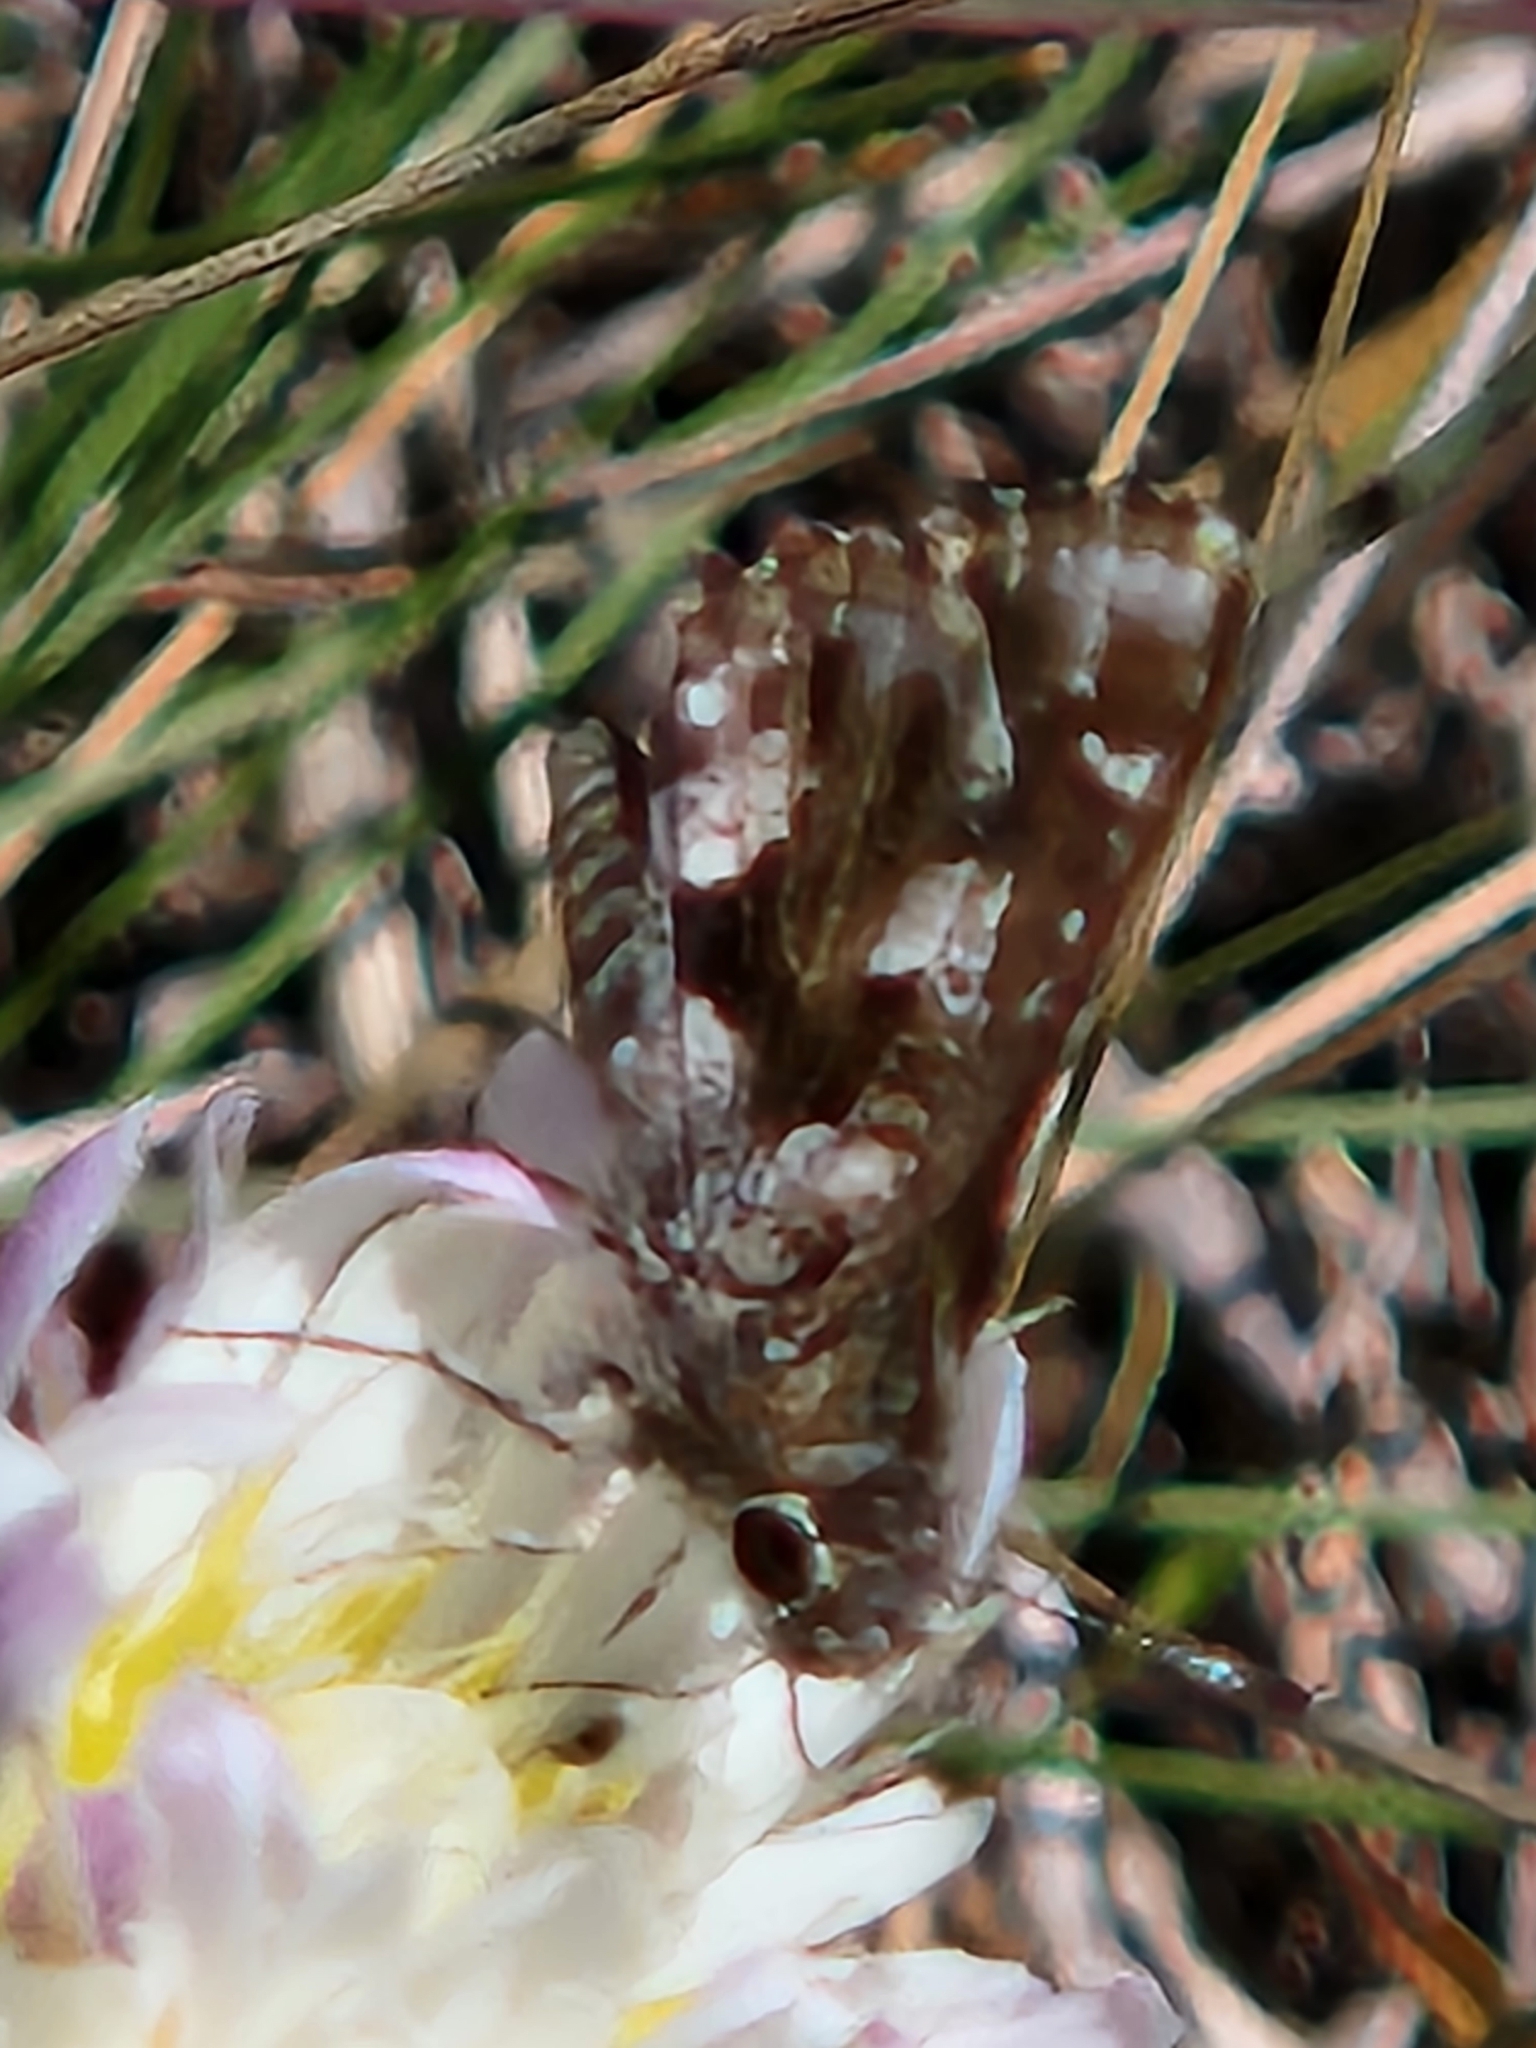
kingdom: Animalia
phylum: Arthropoda
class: Insecta
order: Lepidoptera
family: Hesperiidae
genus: Mastor
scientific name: Mastor nysa
